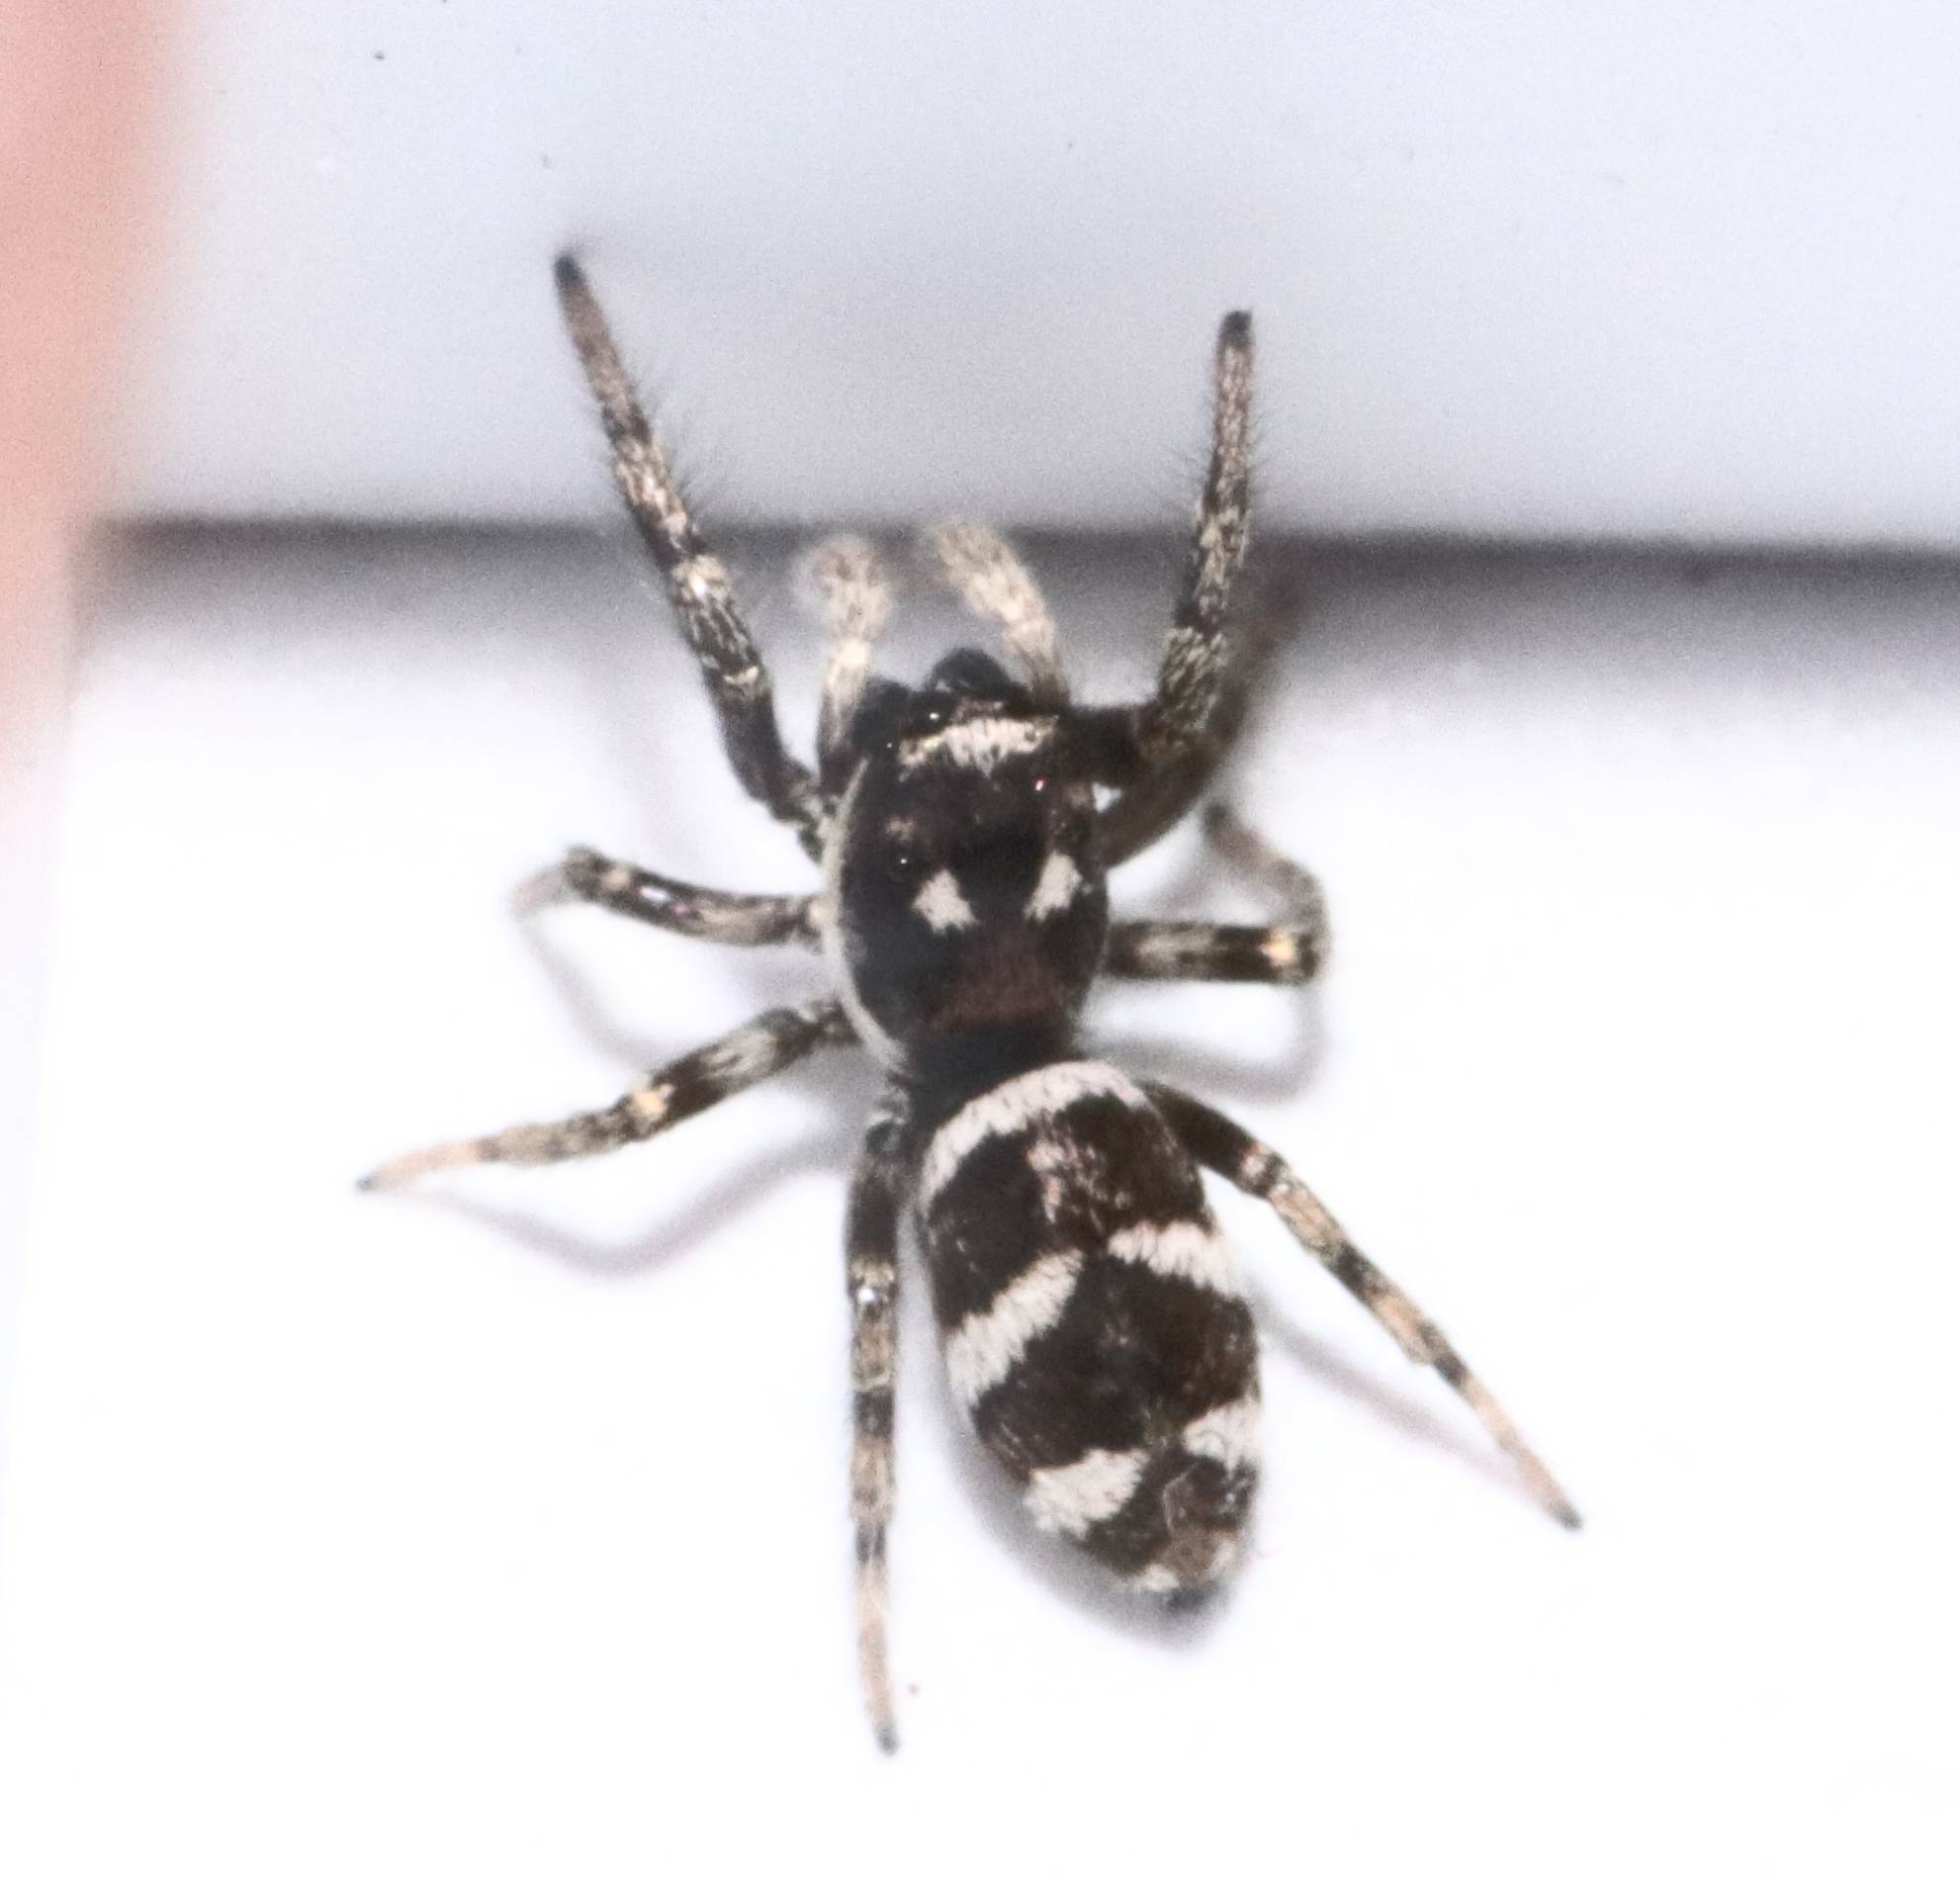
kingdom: Animalia
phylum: Arthropoda
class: Arachnida
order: Araneae
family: Salticidae
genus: Salticus
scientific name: Salticus scenicus
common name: Zebra jumper
